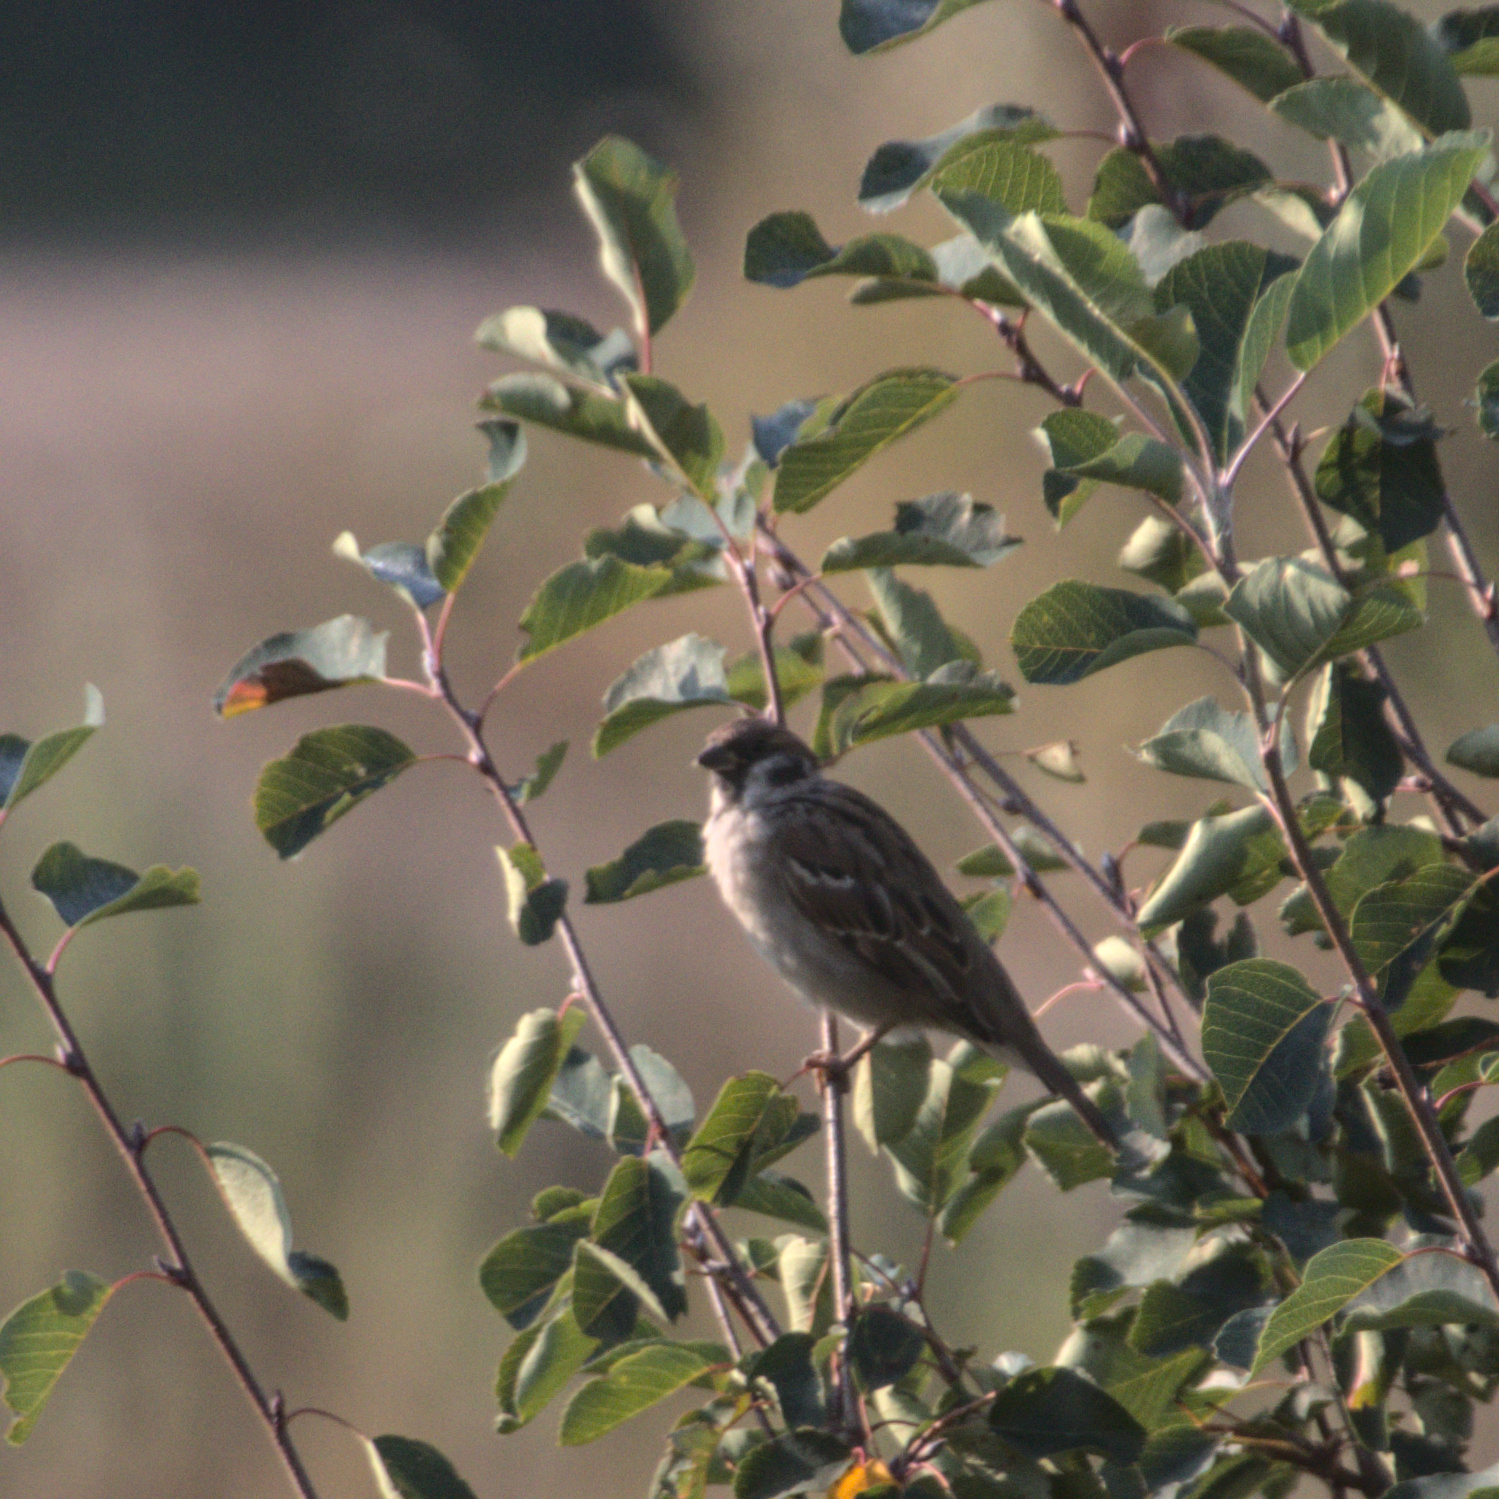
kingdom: Animalia
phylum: Chordata
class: Aves
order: Passeriformes
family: Passeridae
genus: Passer
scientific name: Passer montanus
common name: Eurasian tree sparrow
